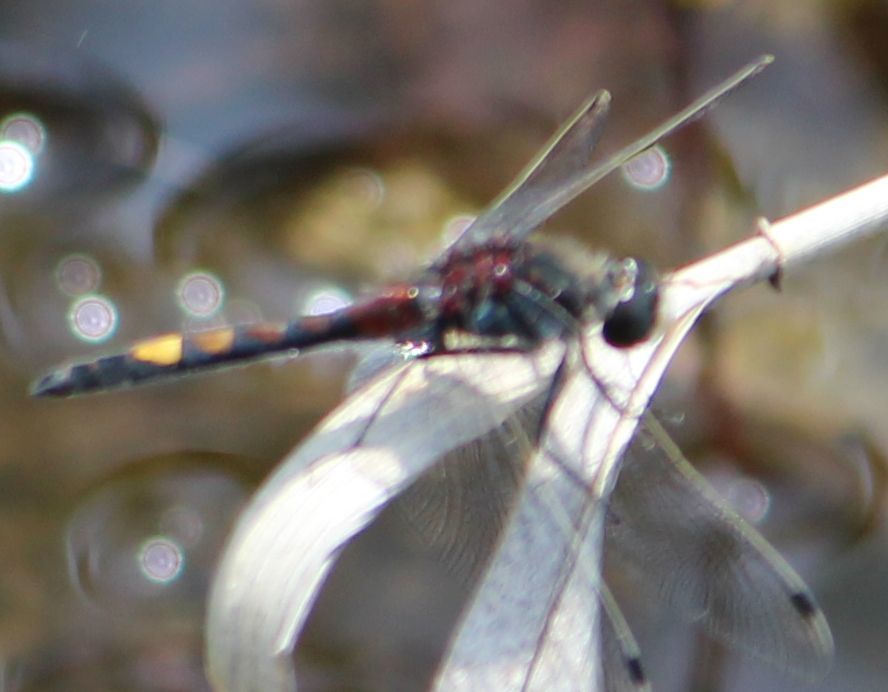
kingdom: Animalia
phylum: Arthropoda
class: Insecta
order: Odonata
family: Libellulidae
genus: Leucorrhinia
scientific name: Leucorrhinia pectoralis
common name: Yellow-spotted whiteface
